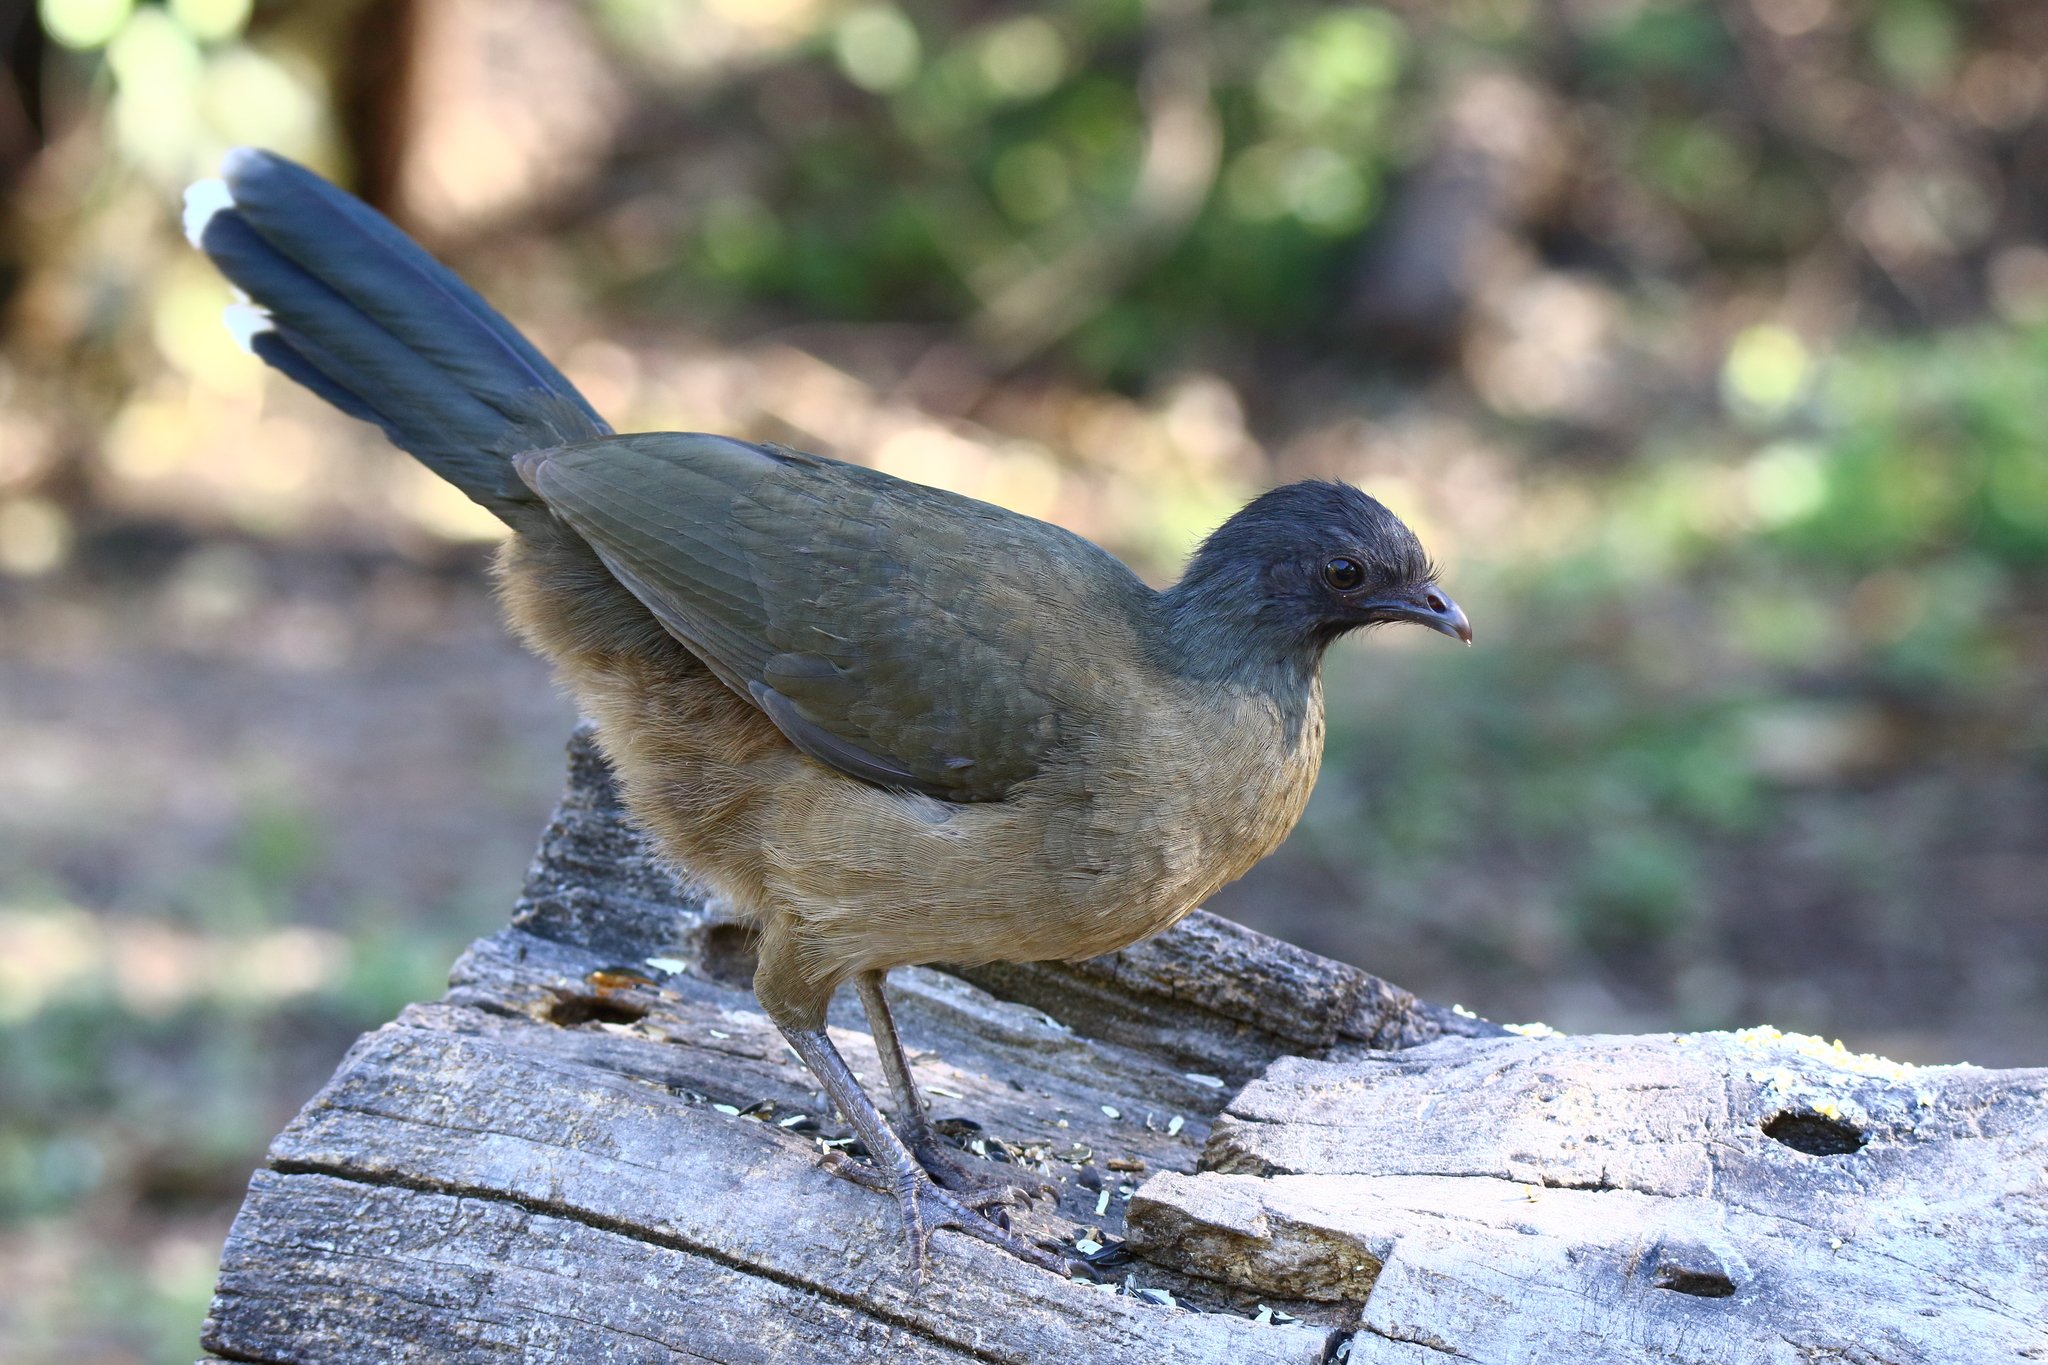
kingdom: Animalia
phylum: Chordata
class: Aves
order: Galliformes
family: Cracidae
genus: Ortalis
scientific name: Ortalis vetula
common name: Plain chachalaca
